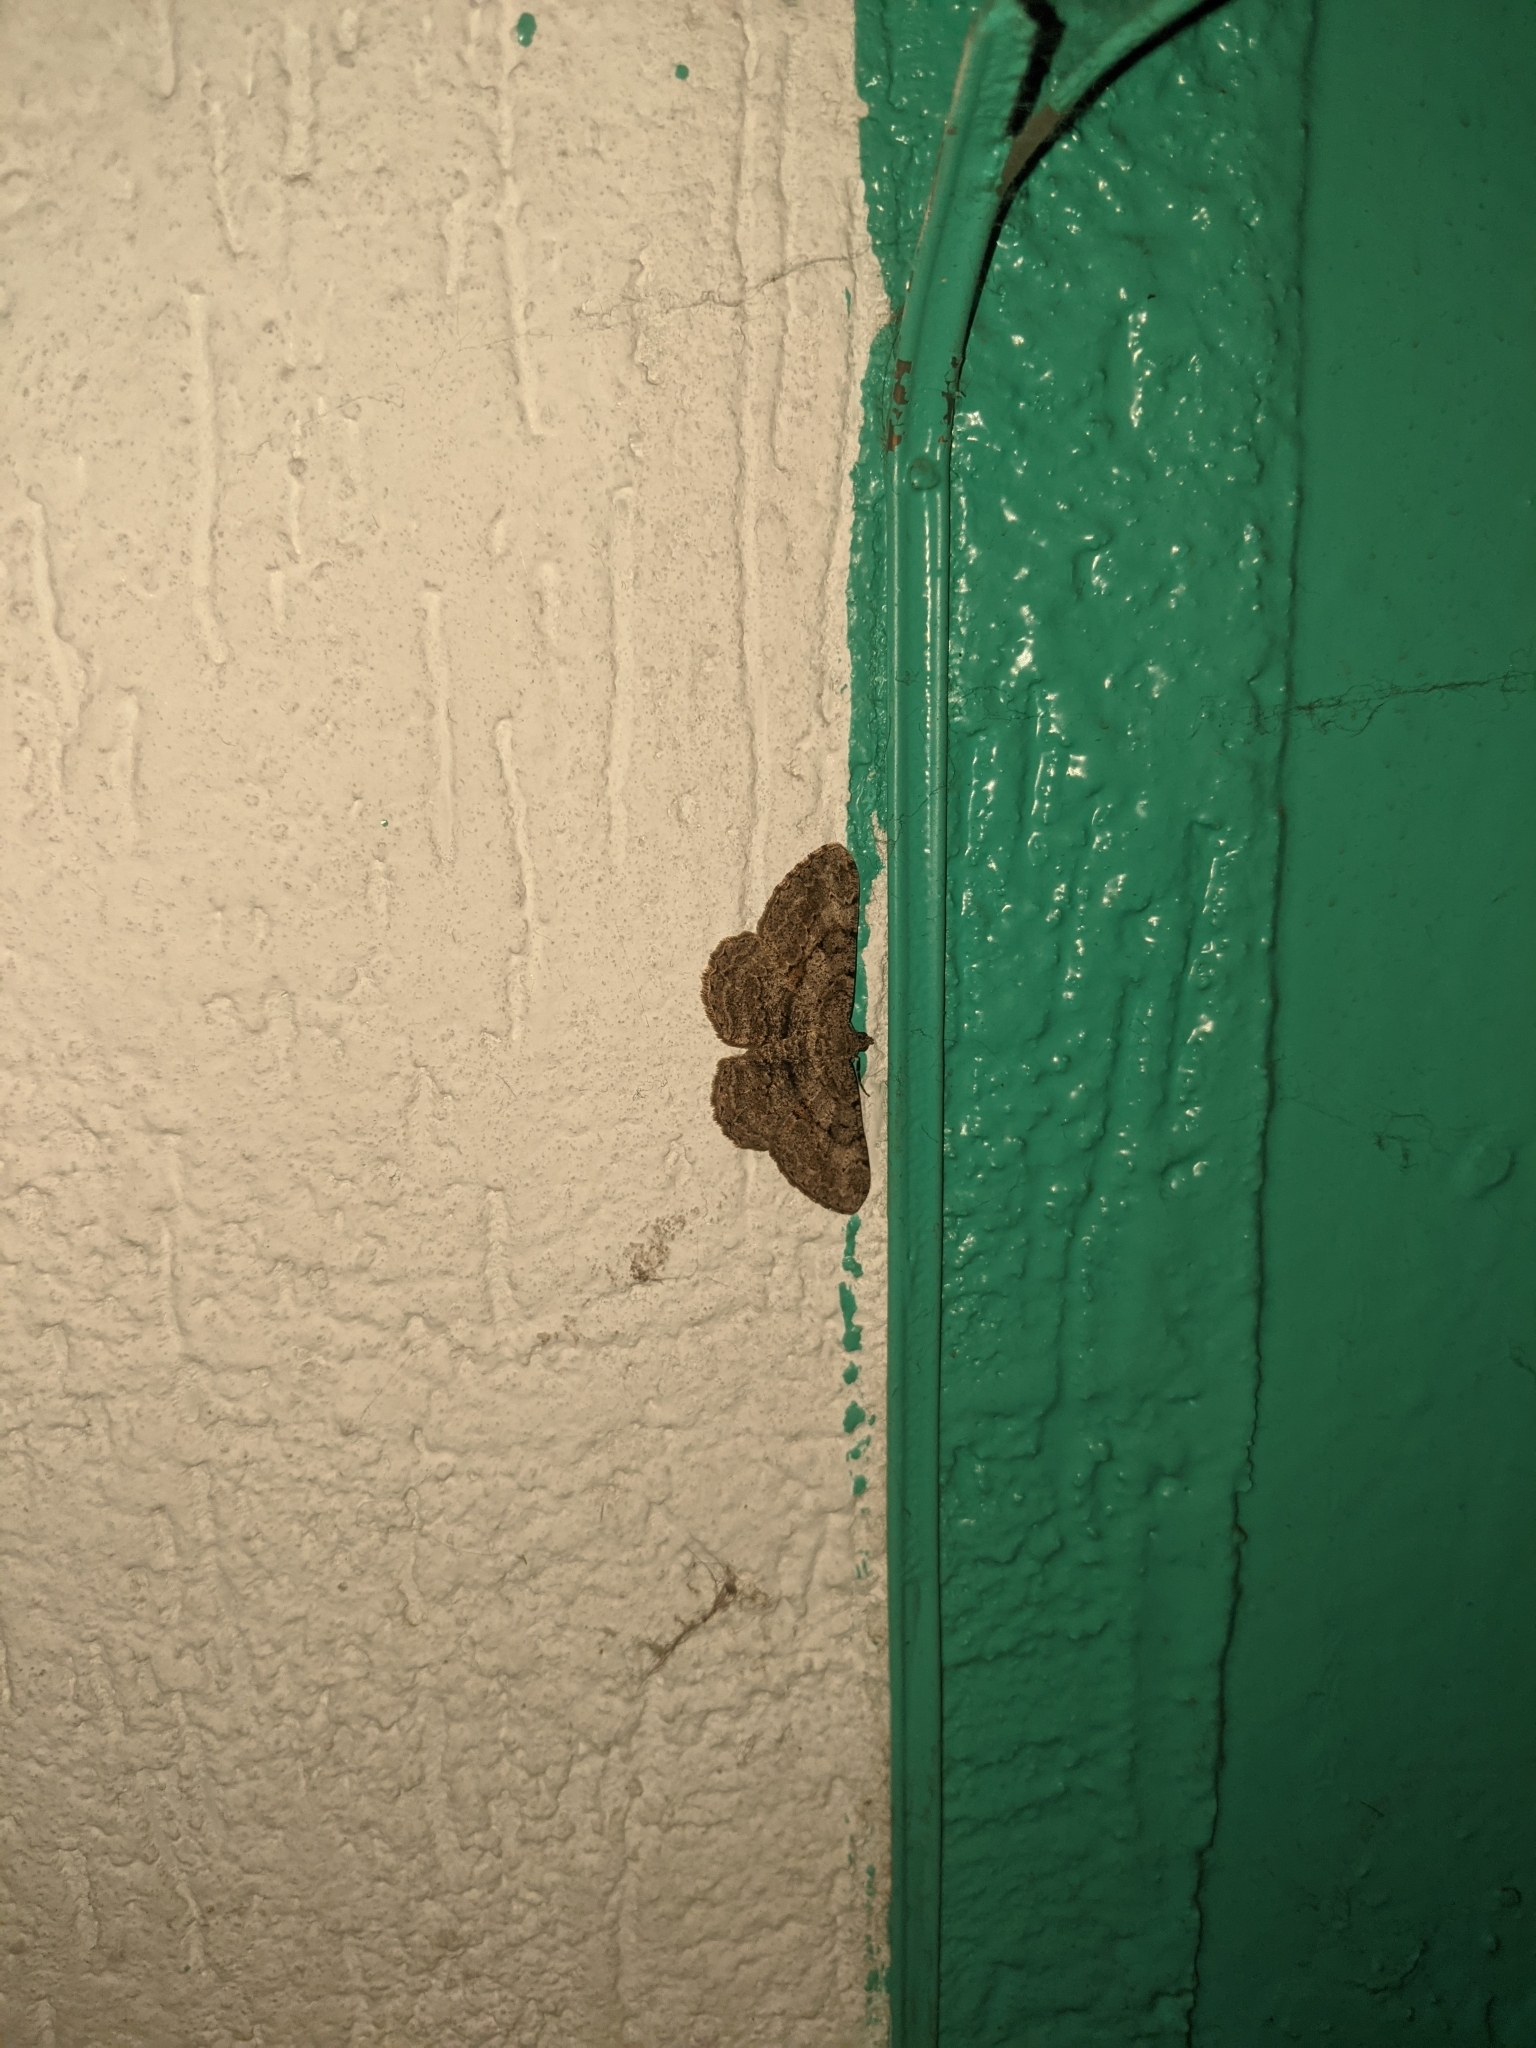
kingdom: Animalia
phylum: Arthropoda
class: Insecta
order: Lepidoptera
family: Geometridae
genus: Peribatodes
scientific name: Peribatodes rhomboidaria
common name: Willow beauty
